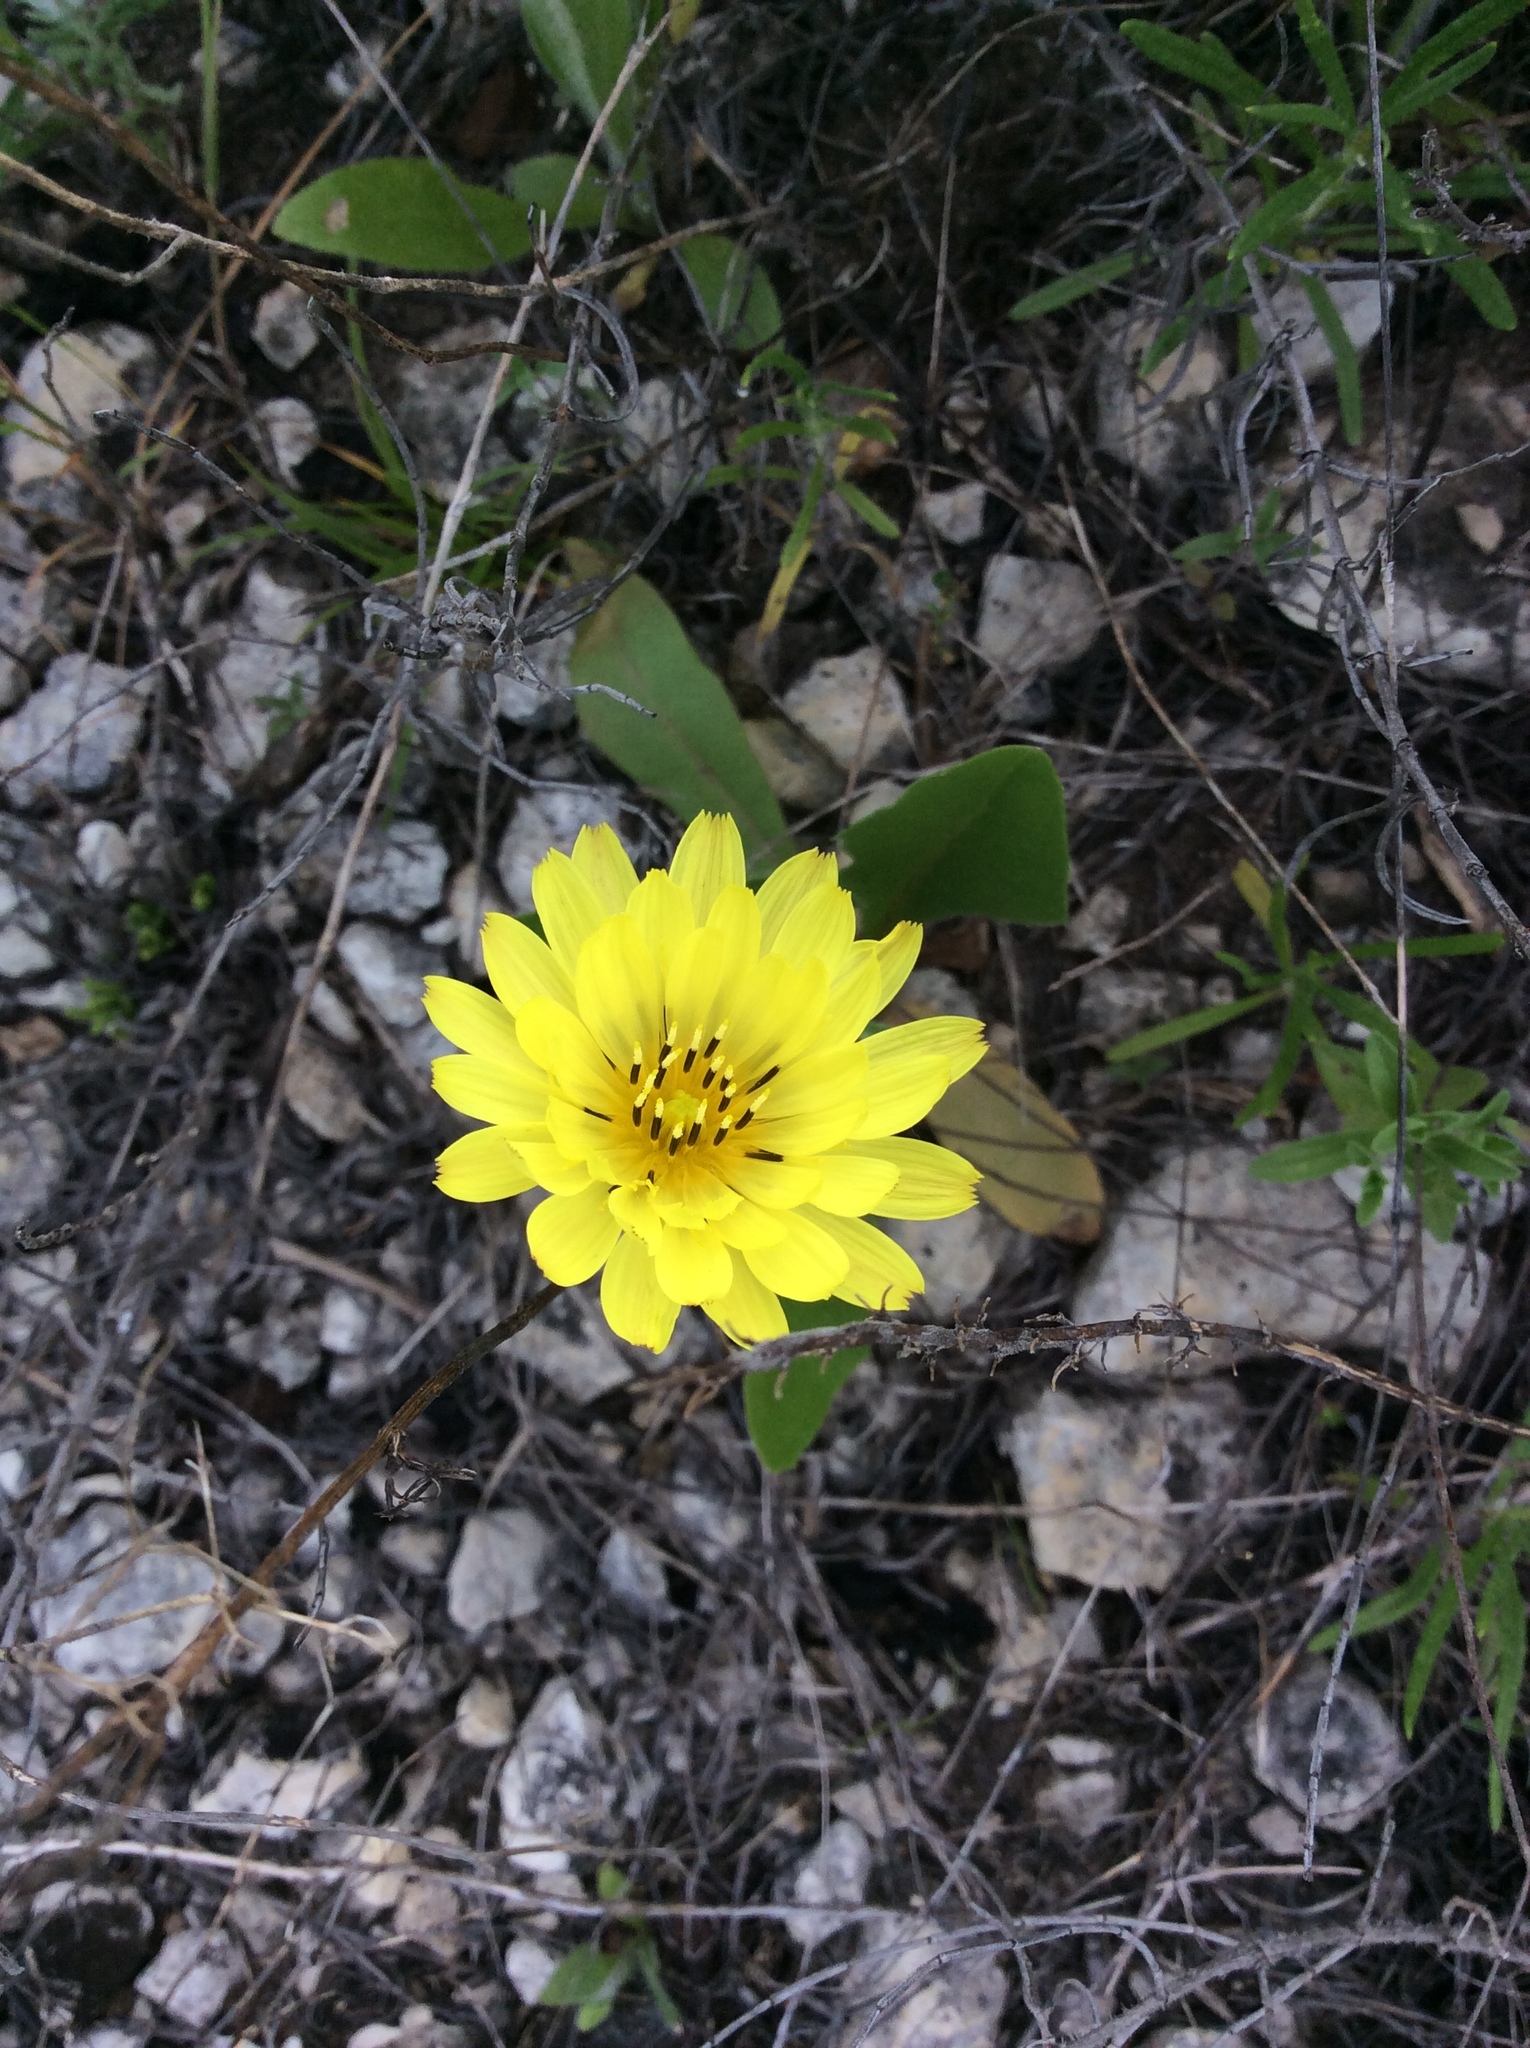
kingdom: Plantae
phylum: Tracheophyta
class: Magnoliopsida
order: Asterales
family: Asteraceae
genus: Pyrrhopappus
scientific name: Pyrrhopappus pauciflorus
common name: Texas false dandelion
